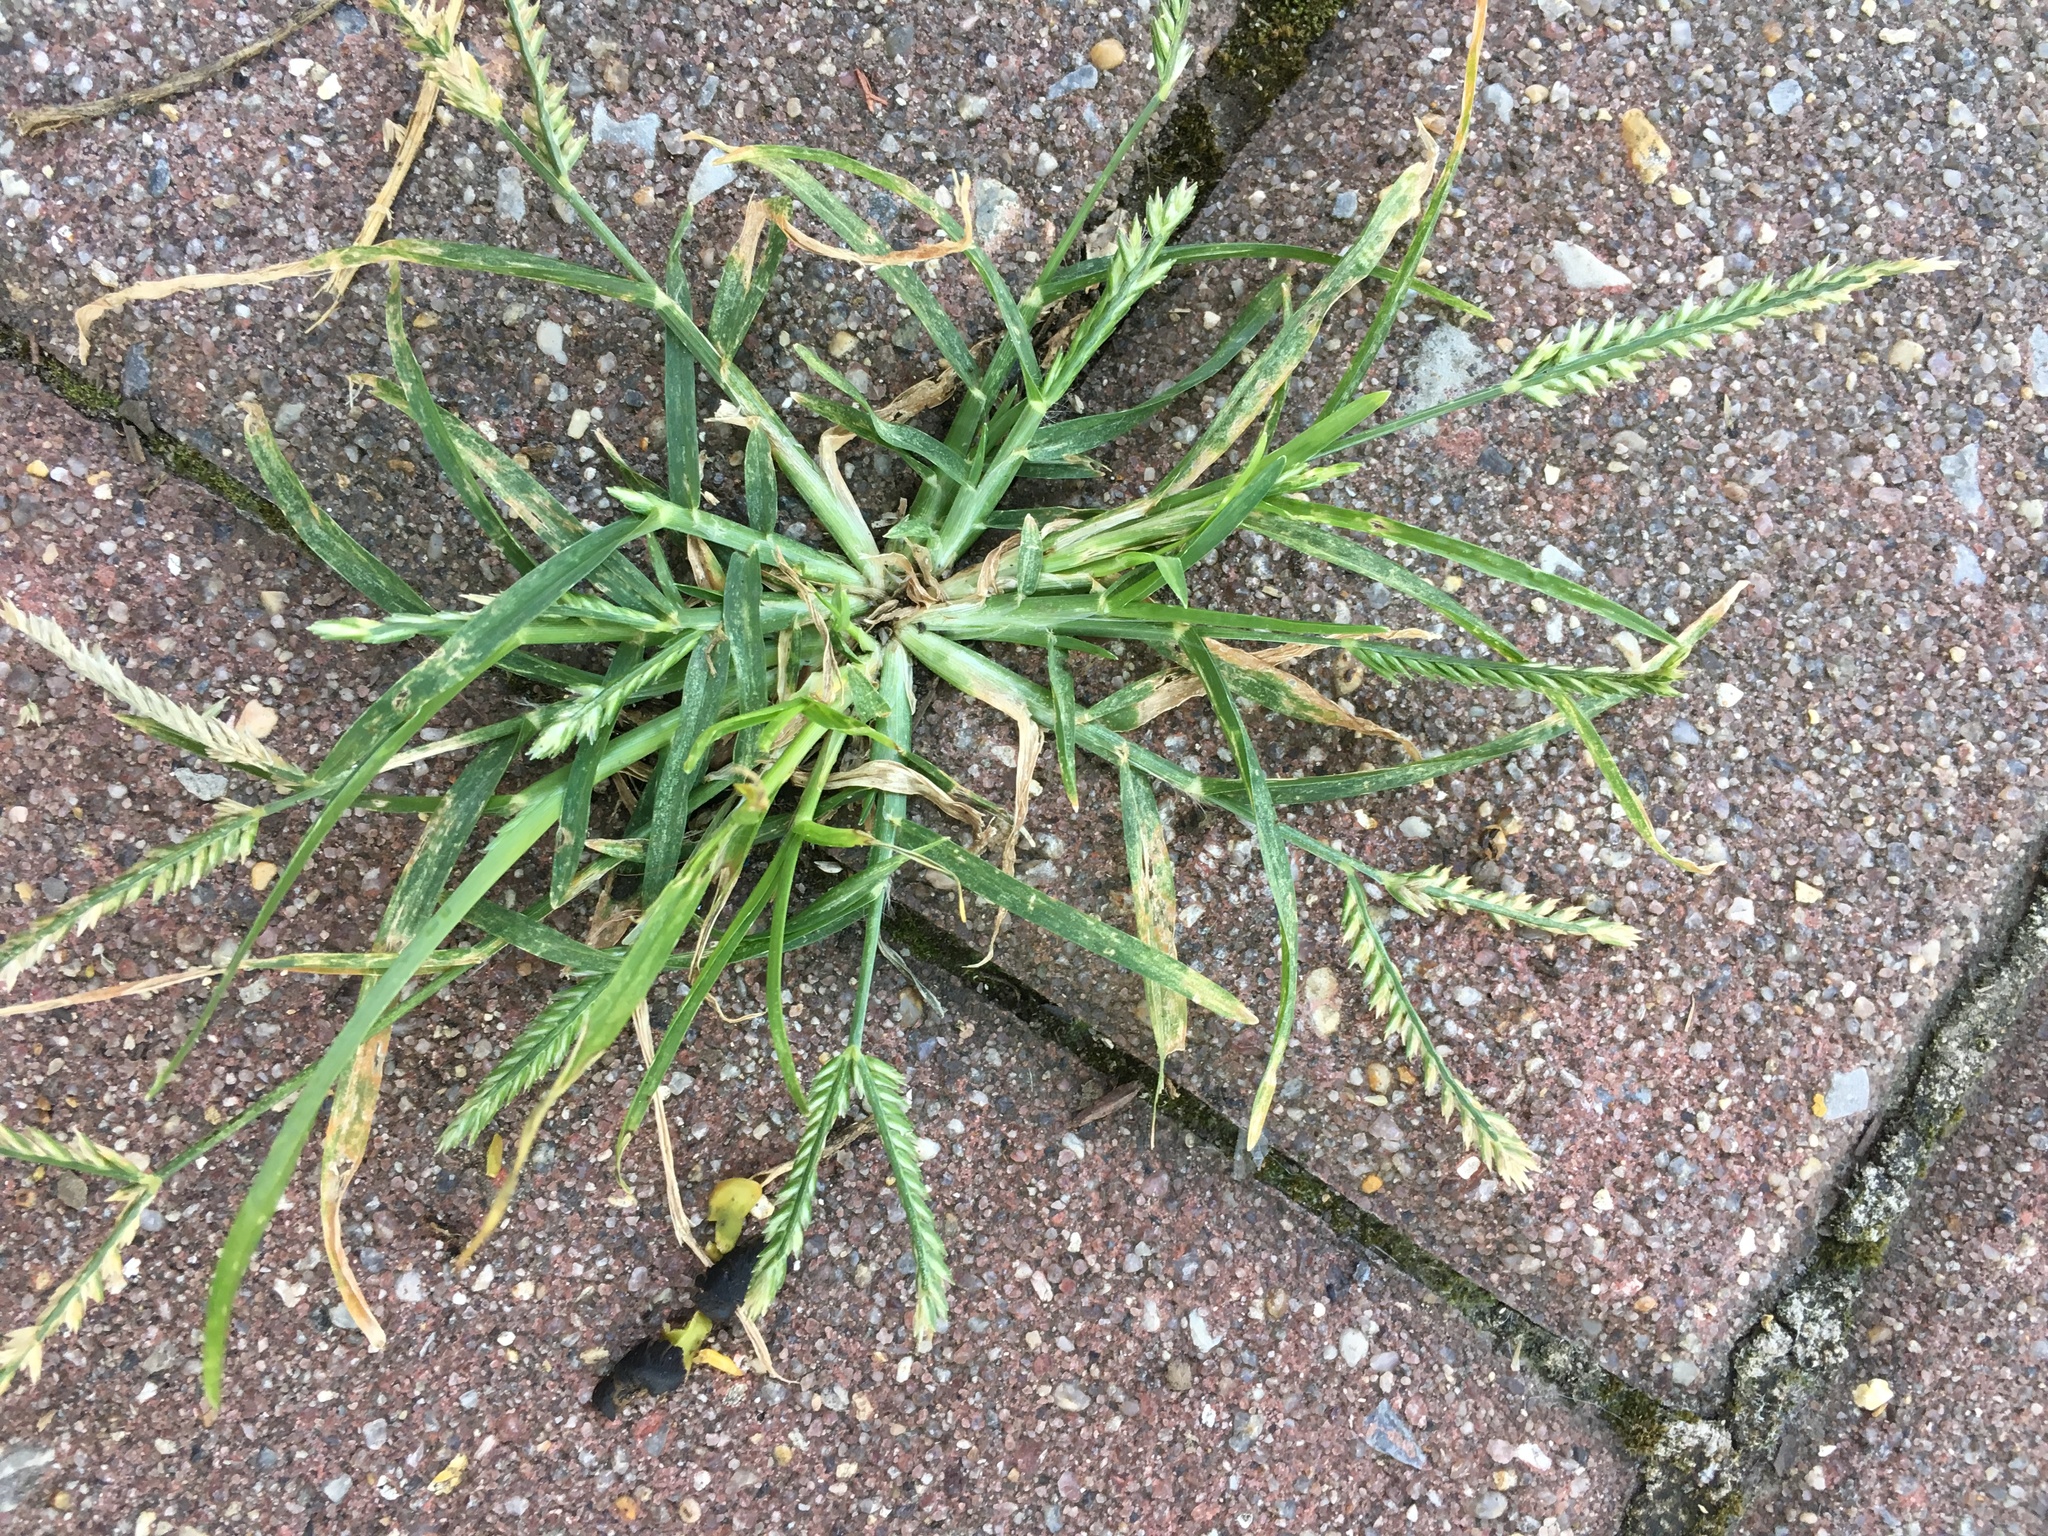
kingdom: Plantae
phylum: Tracheophyta
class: Liliopsida
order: Poales
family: Poaceae
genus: Eleusine
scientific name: Eleusine indica
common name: Yard-grass
